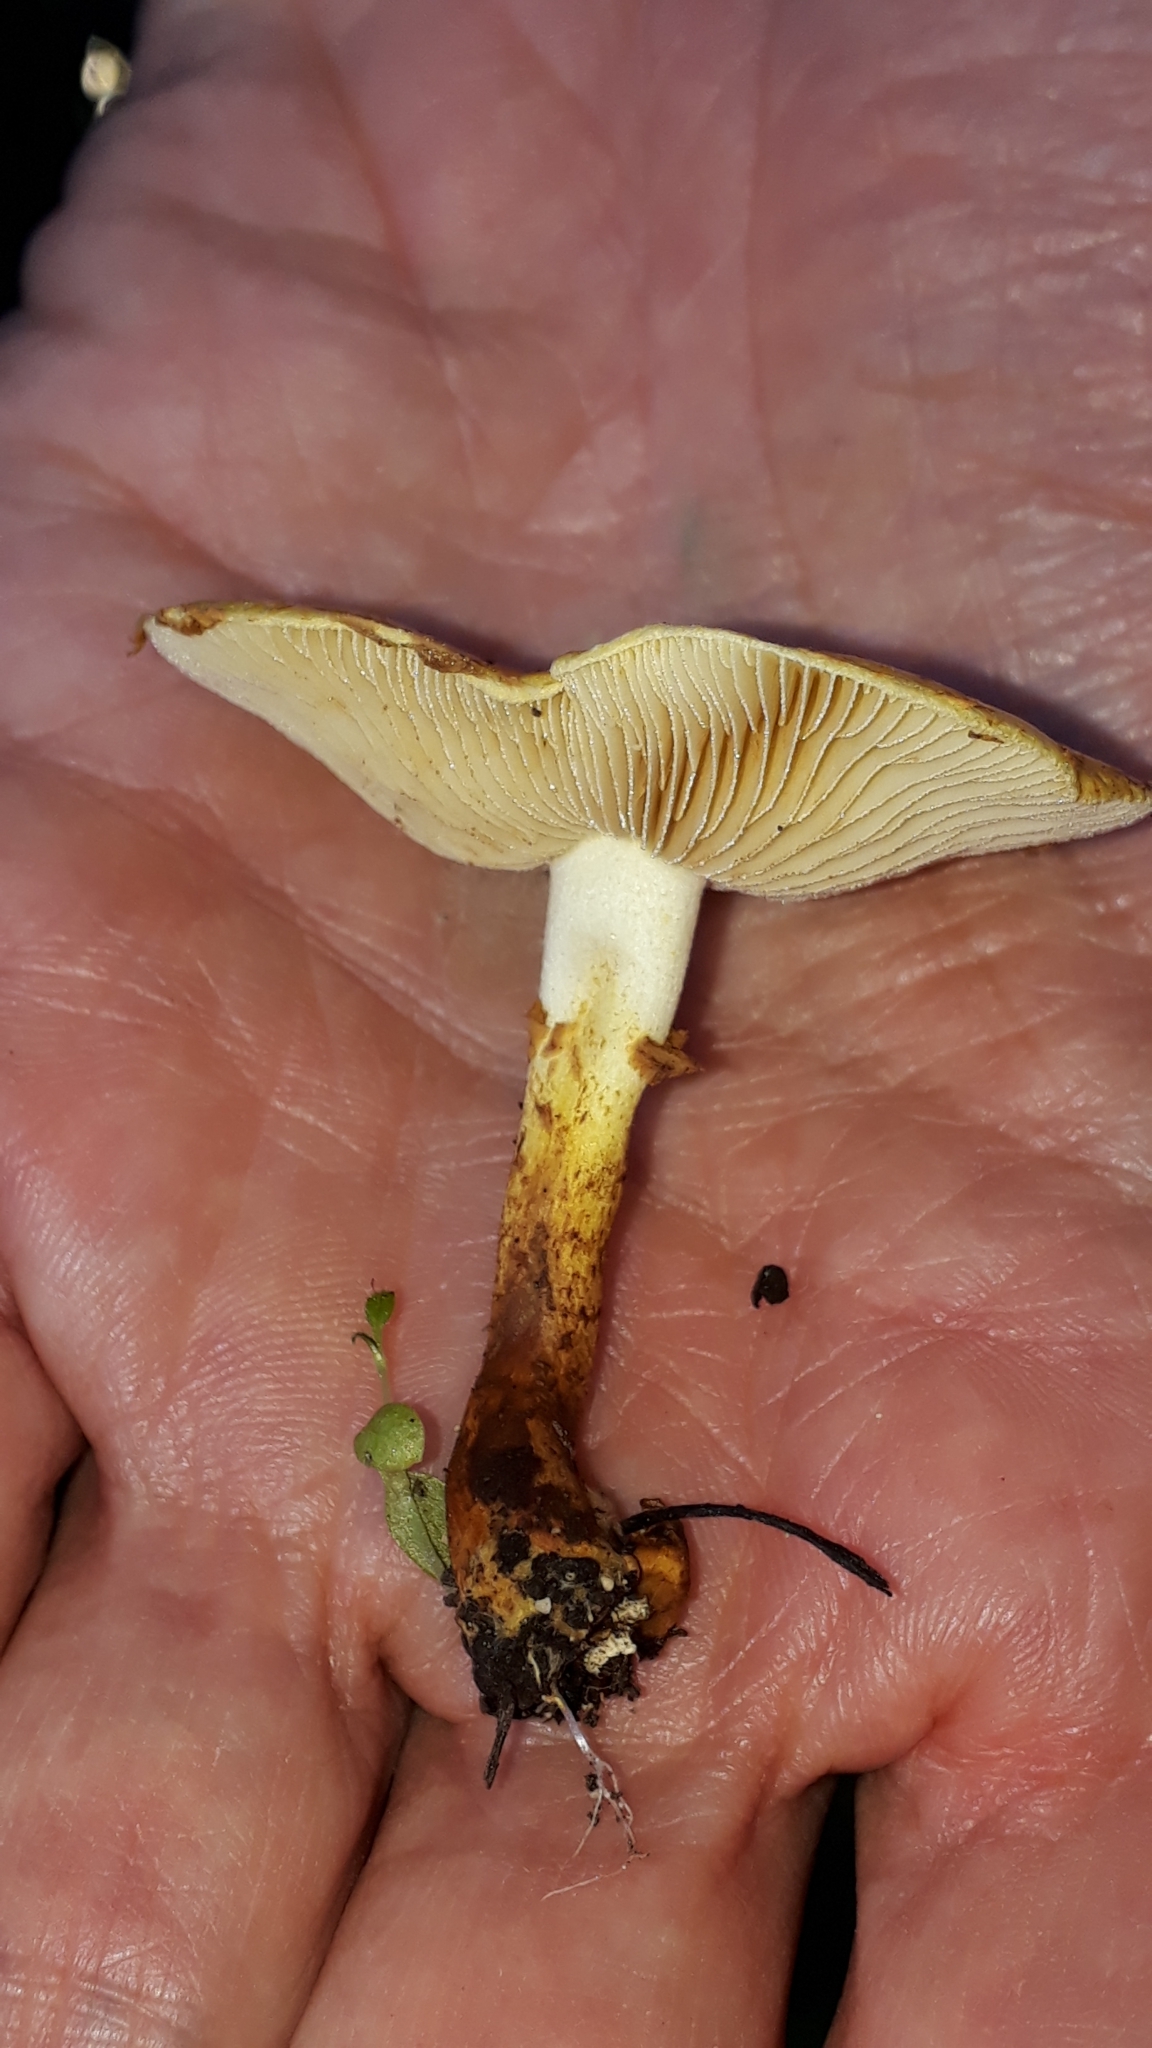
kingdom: Fungi
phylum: Basidiomycota
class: Agaricomycetes
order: Agaricales
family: Strophariaceae
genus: Pholiota
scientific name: Pholiota lucifera
